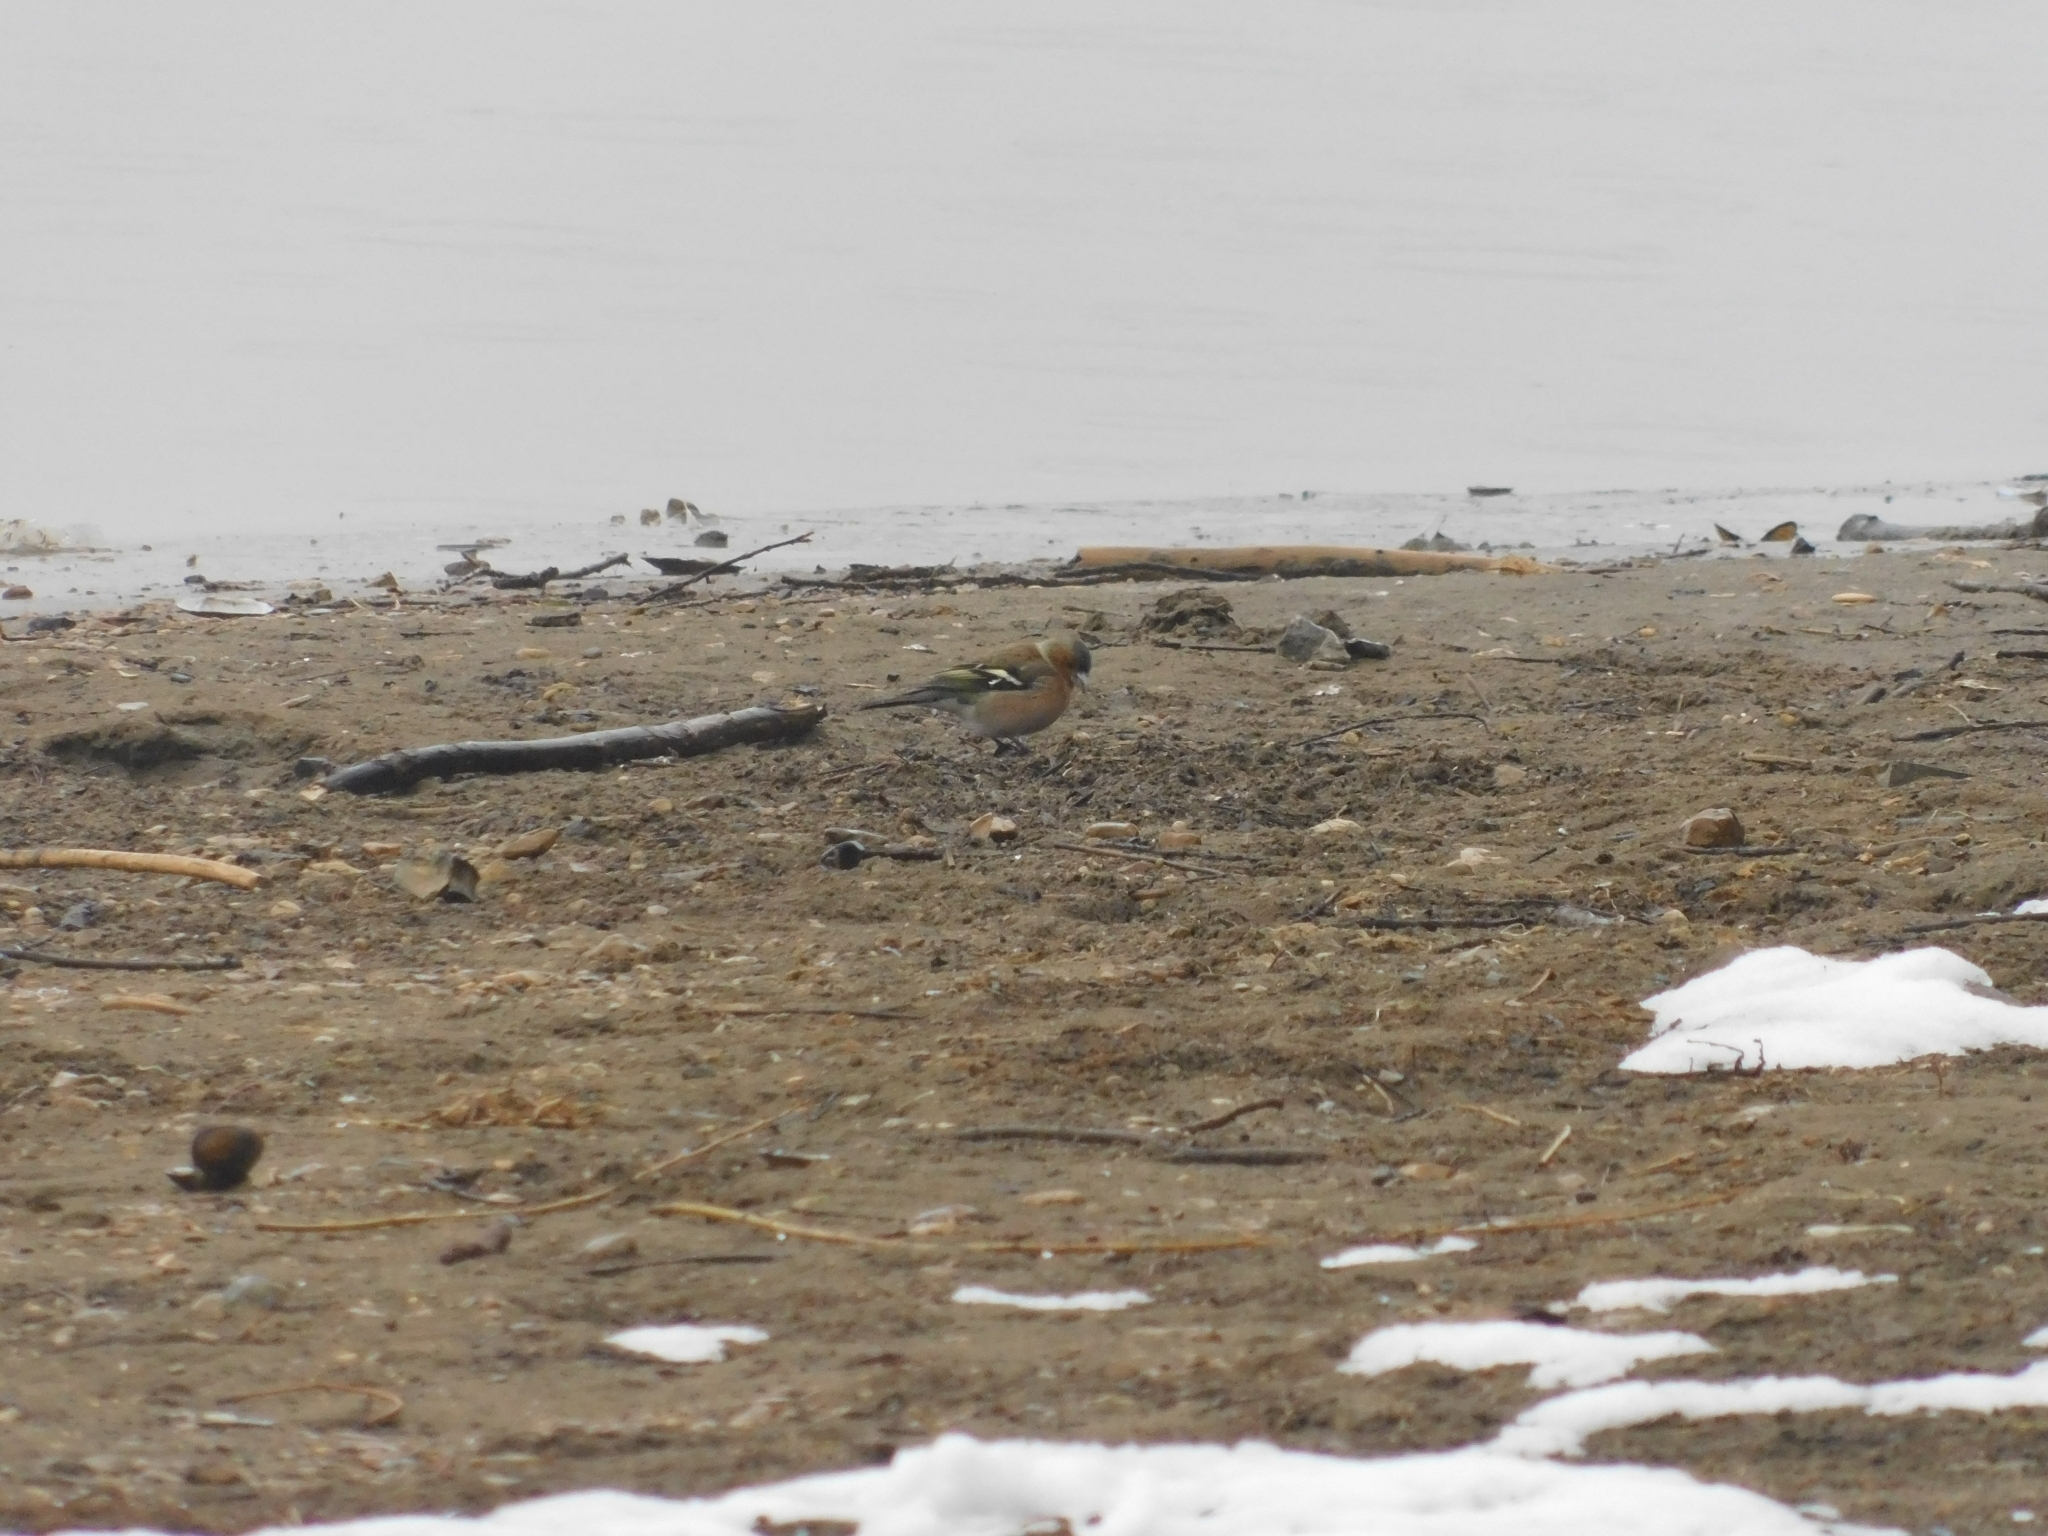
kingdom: Animalia
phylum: Chordata
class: Aves
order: Passeriformes
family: Fringillidae
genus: Fringilla
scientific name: Fringilla coelebs
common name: Common chaffinch
